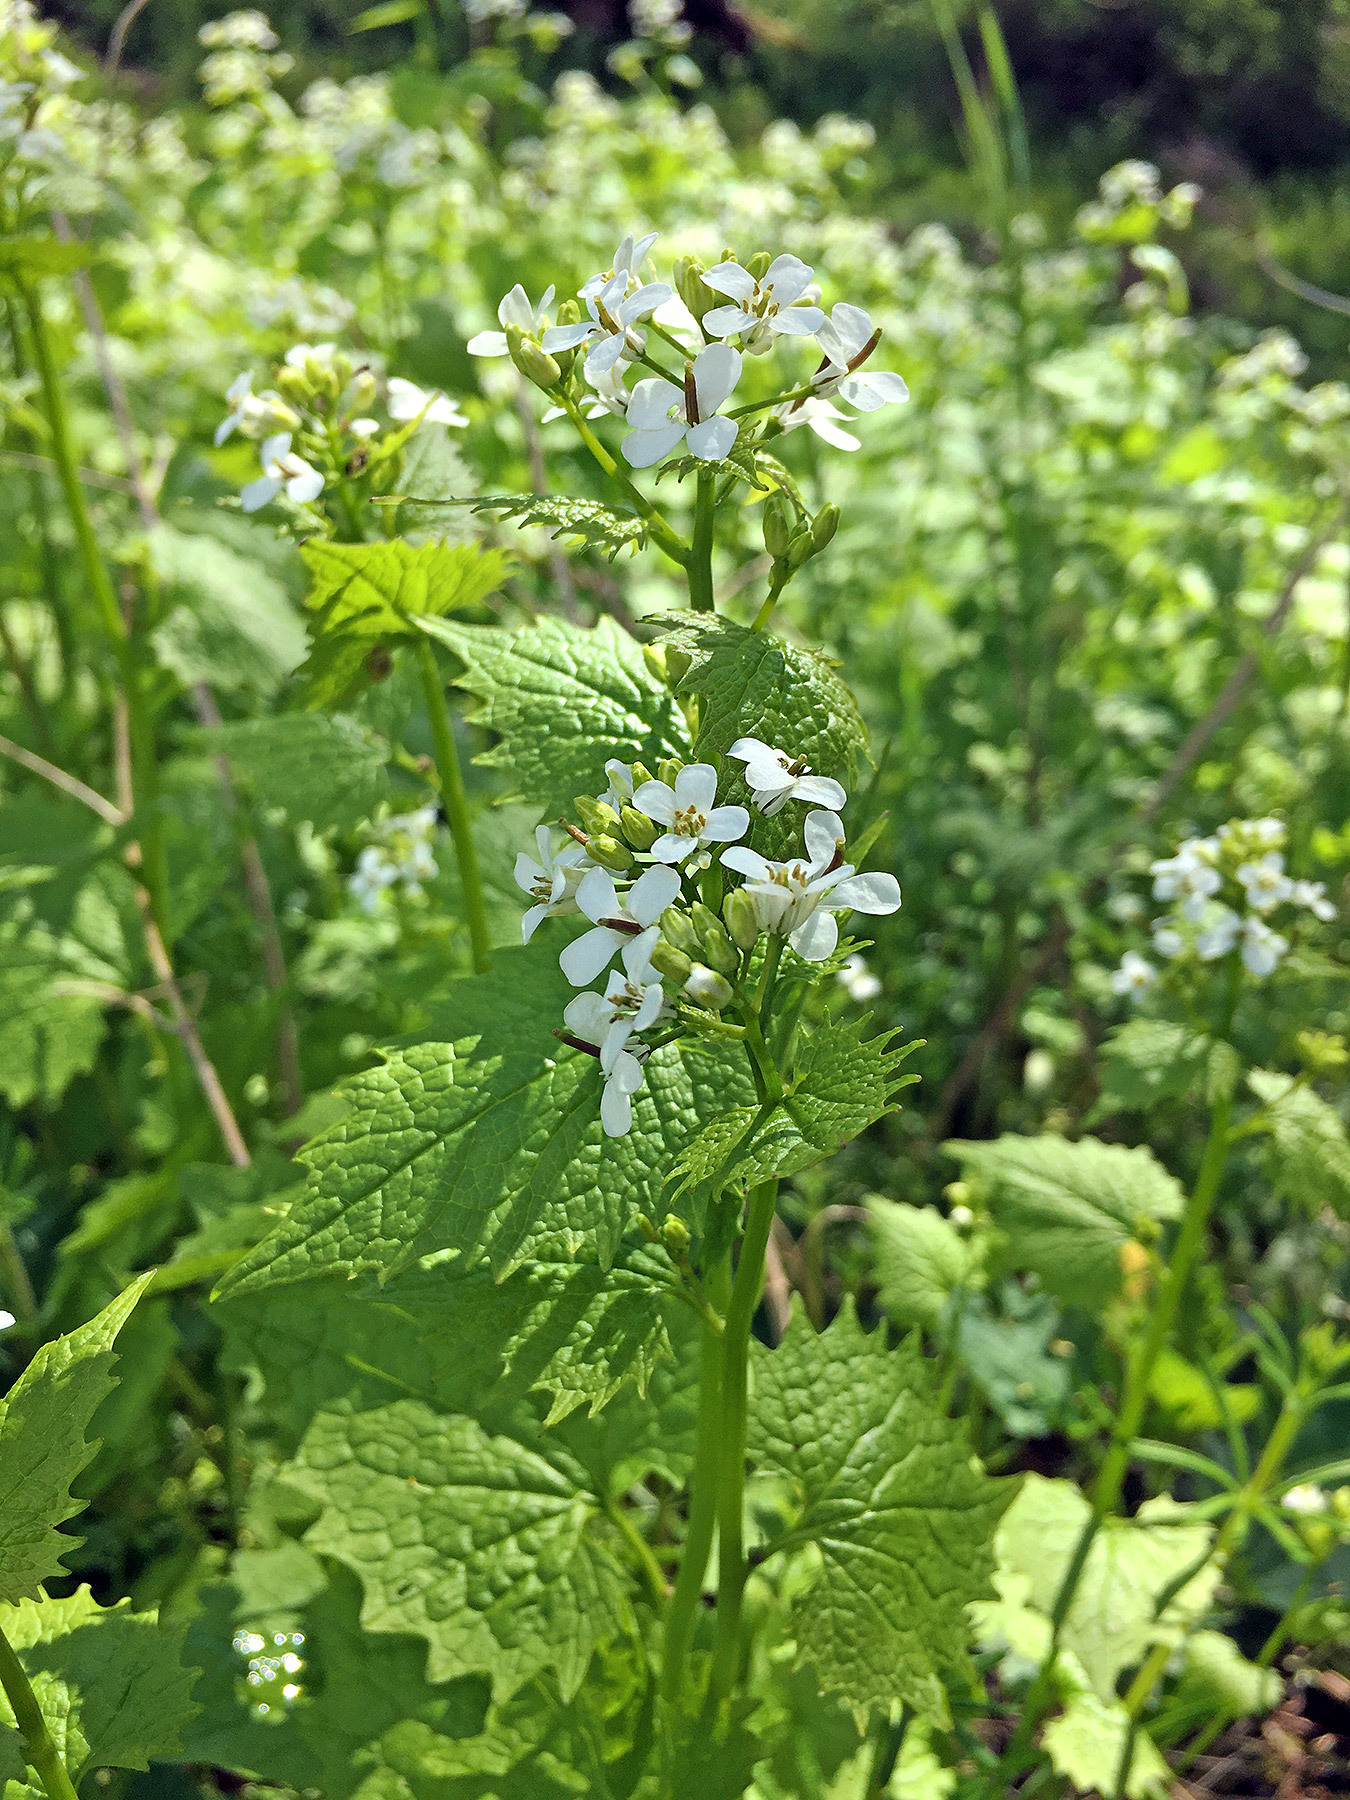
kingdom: Plantae
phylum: Tracheophyta
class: Magnoliopsida
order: Brassicales
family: Brassicaceae
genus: Alliaria
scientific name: Alliaria petiolata
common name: Garlic mustard
